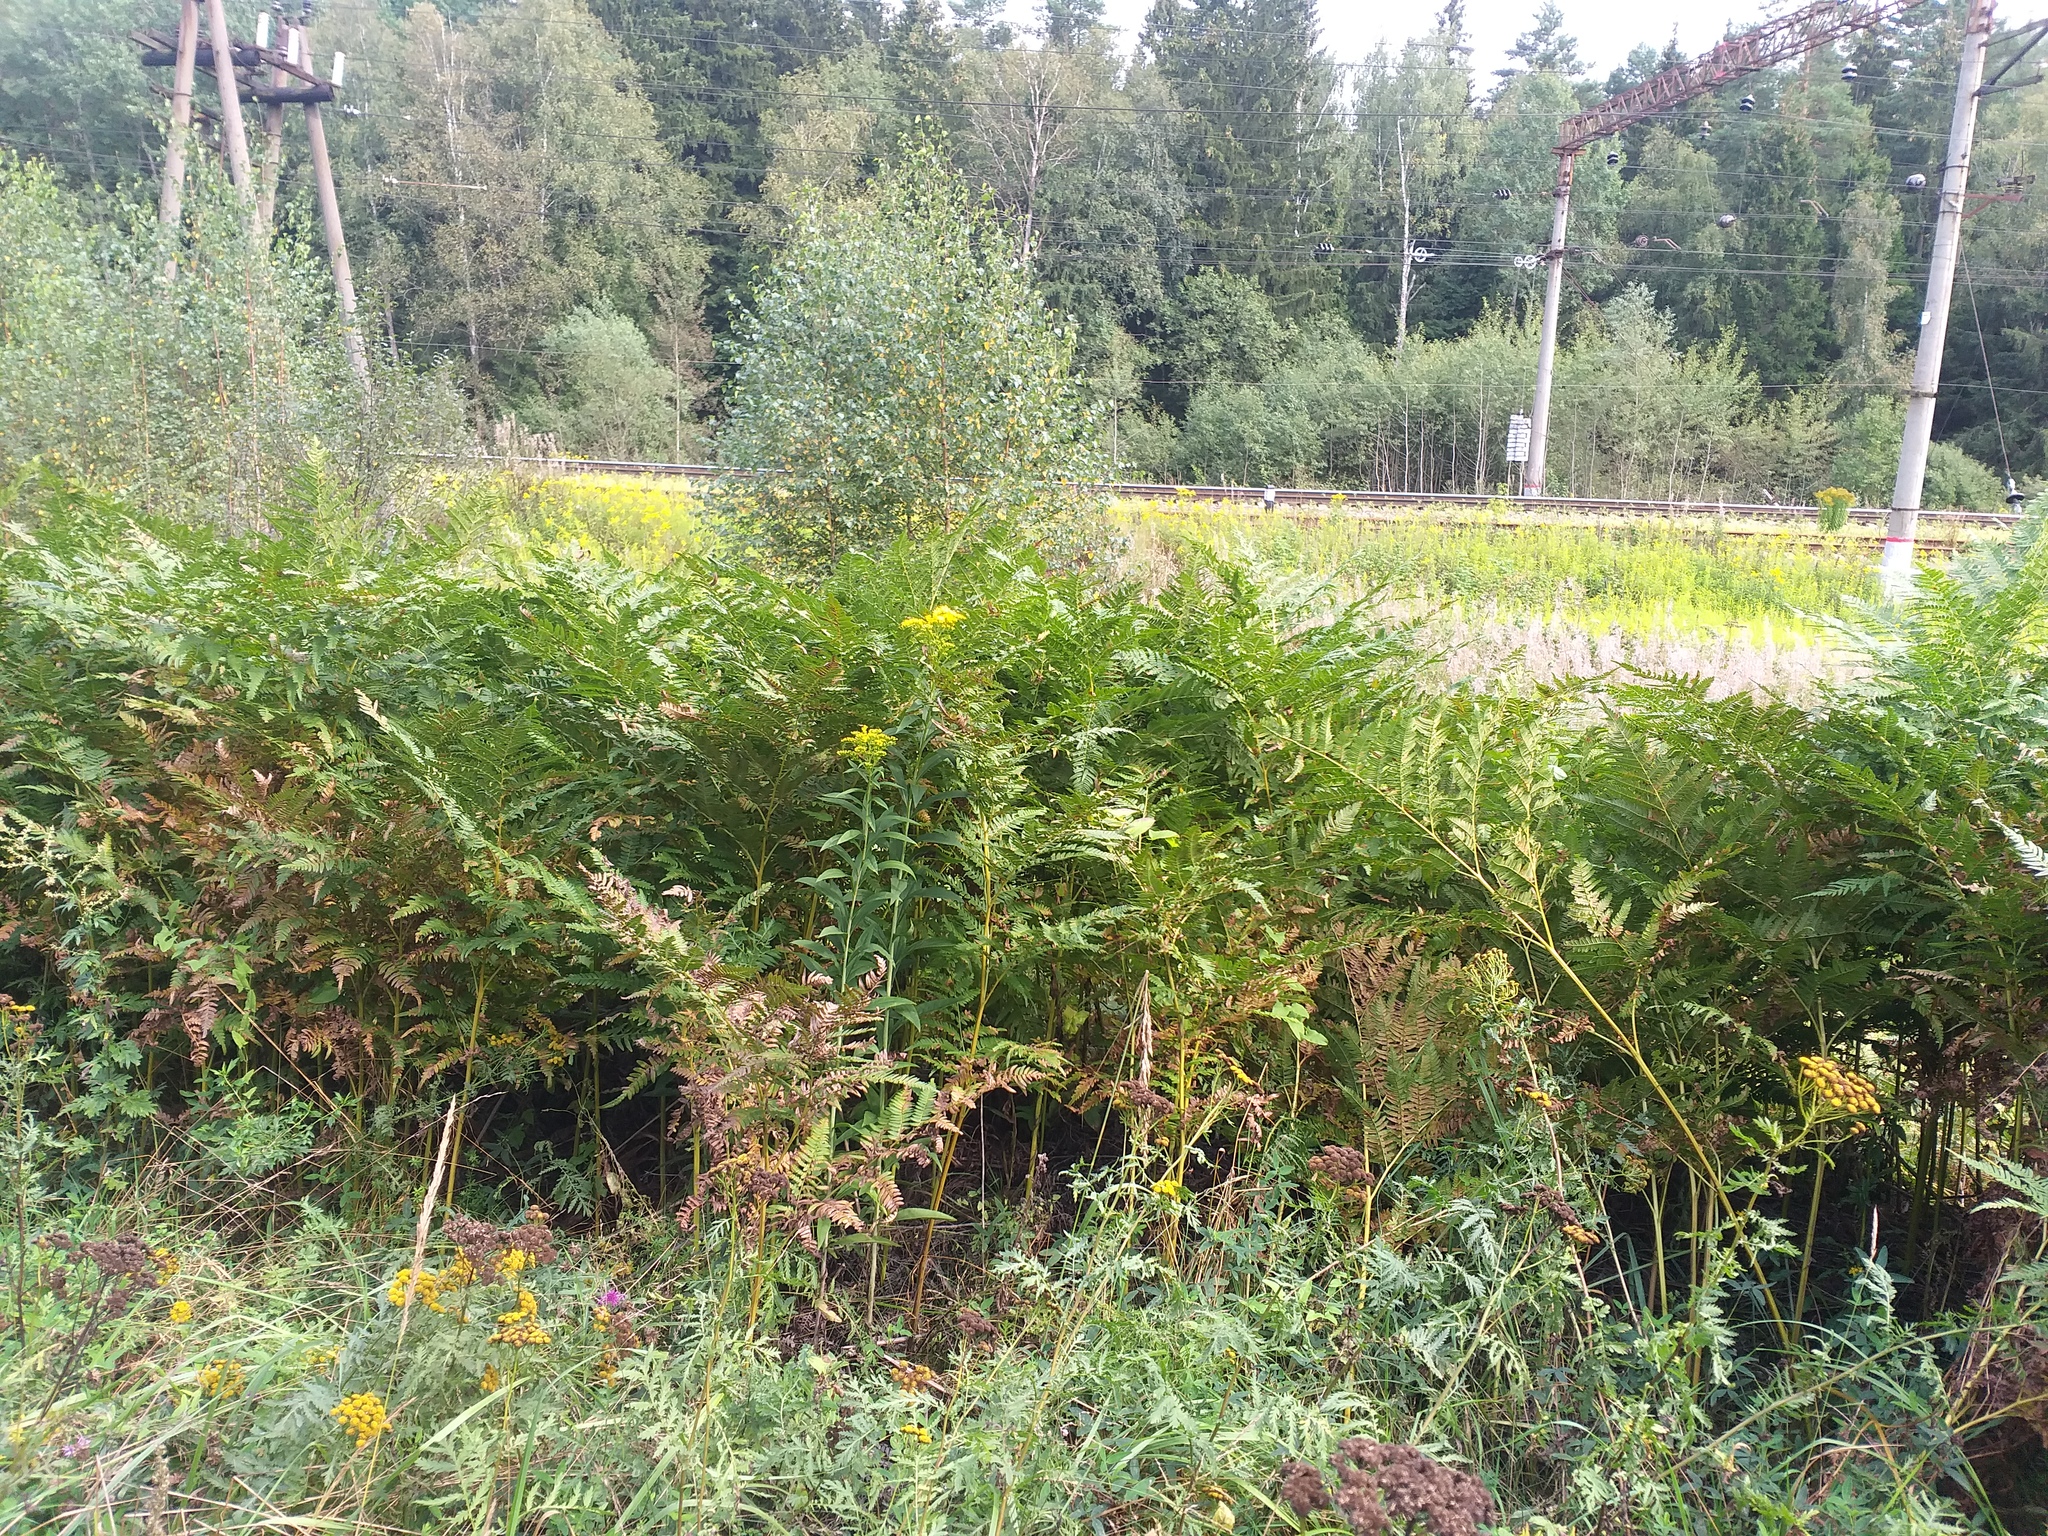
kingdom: Plantae
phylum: Tracheophyta
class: Polypodiopsida
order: Polypodiales
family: Dennstaedtiaceae
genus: Pteridium
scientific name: Pteridium aquilinum
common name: Bracken
